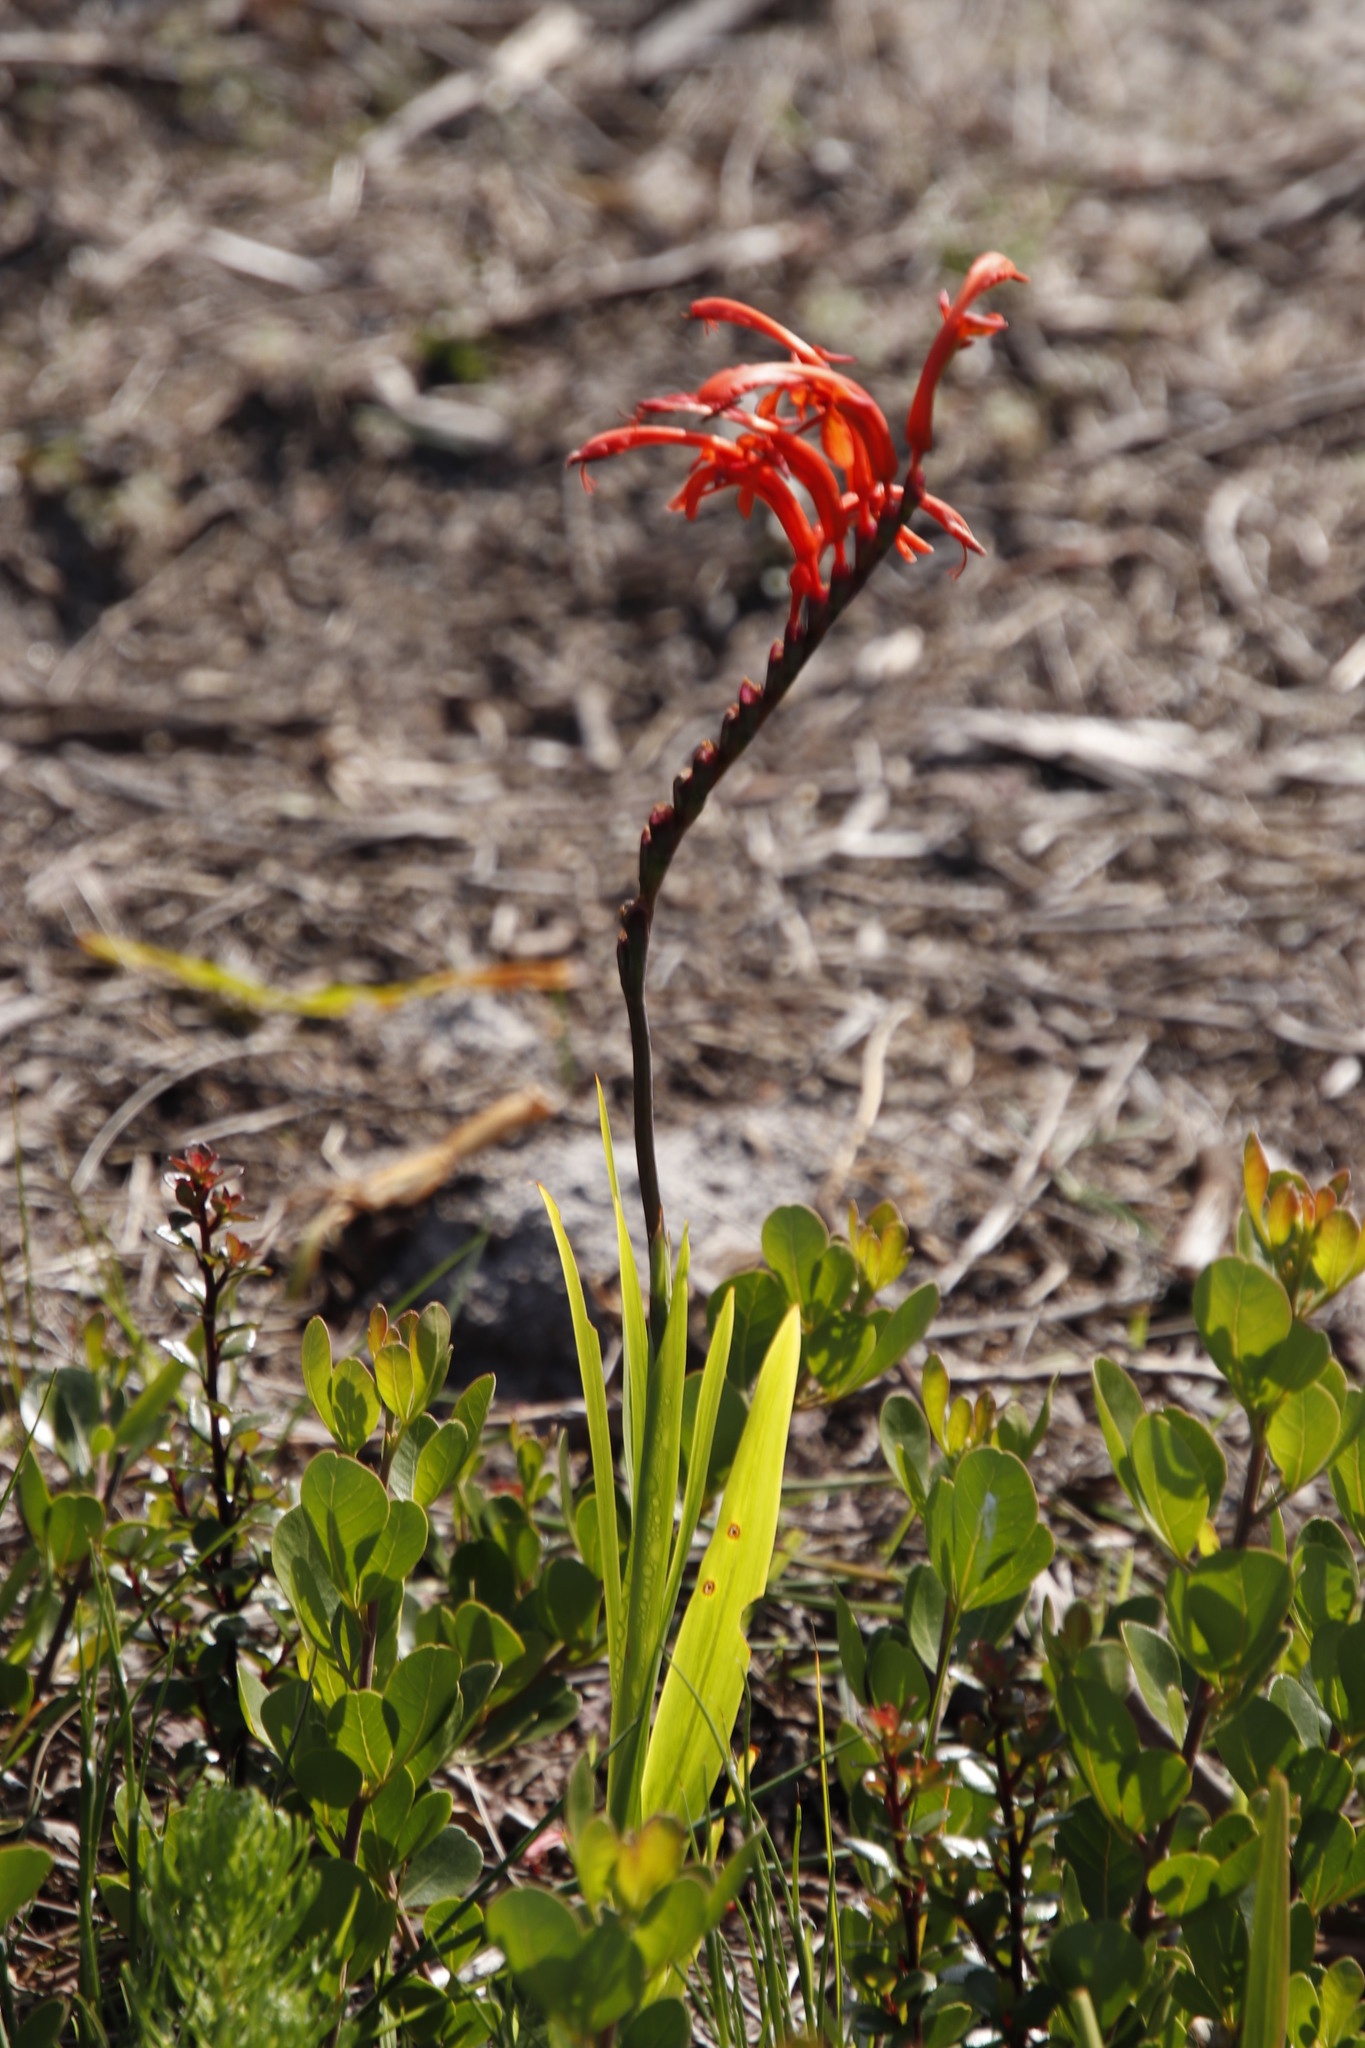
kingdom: Plantae
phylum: Tracheophyta
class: Liliopsida
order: Asparagales
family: Iridaceae
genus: Chasmanthe
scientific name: Chasmanthe aethiopica
